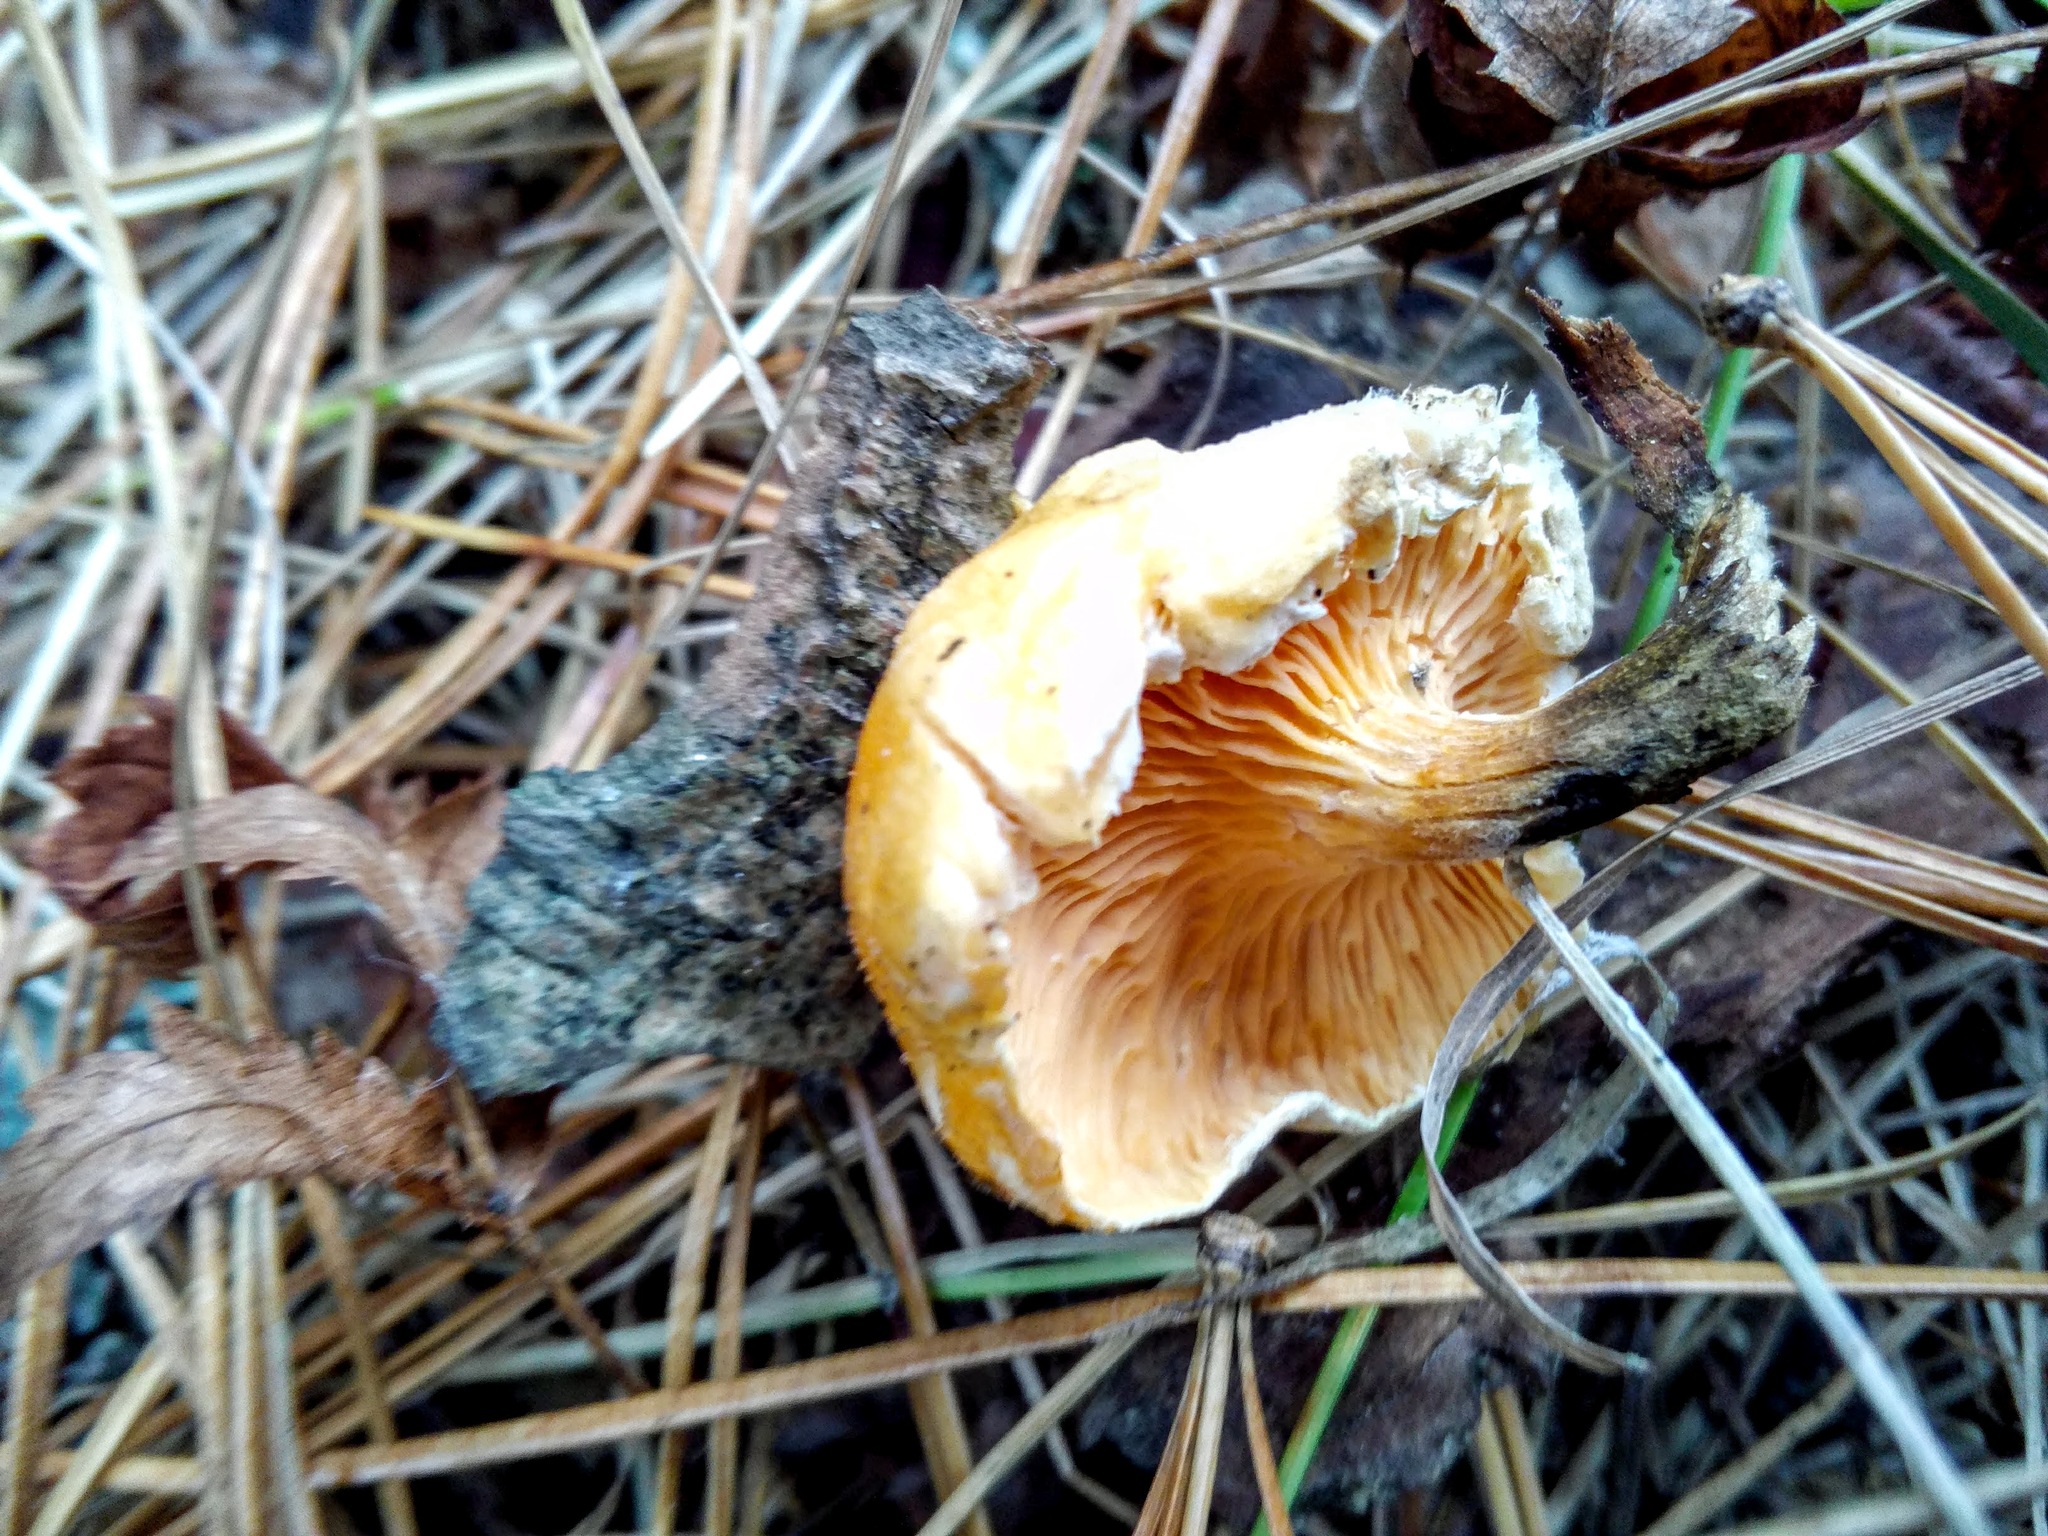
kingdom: Fungi
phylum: Basidiomycota
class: Agaricomycetes
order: Boletales
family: Hygrophoropsidaceae
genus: Hygrophoropsis
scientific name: Hygrophoropsis aurantiaca
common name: False chanterelle
